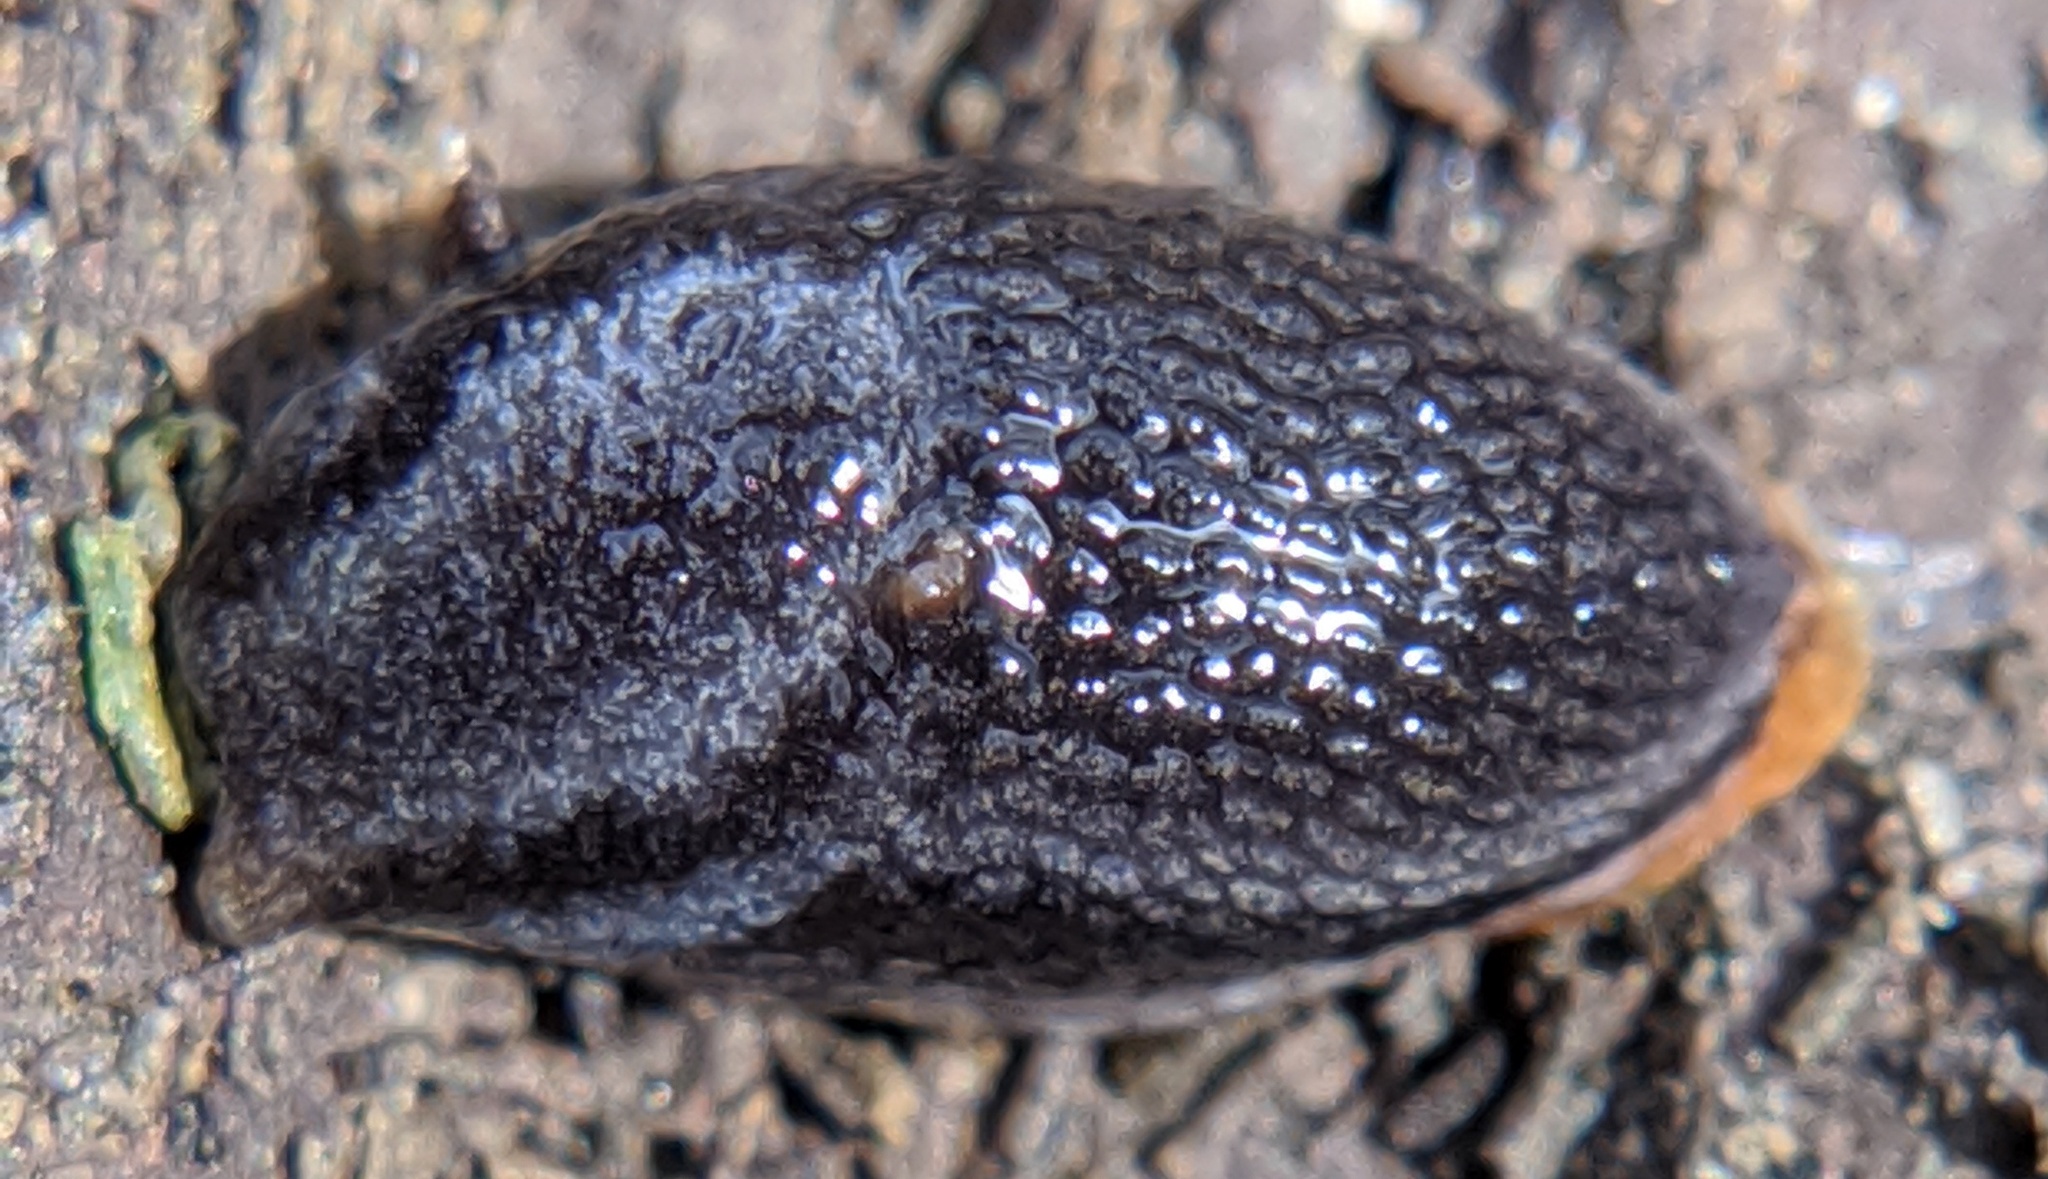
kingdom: Animalia
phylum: Mollusca
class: Gastropoda
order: Stylommatophora
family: Arionidae
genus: Arion
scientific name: Arion hortensis
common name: Garden arion
